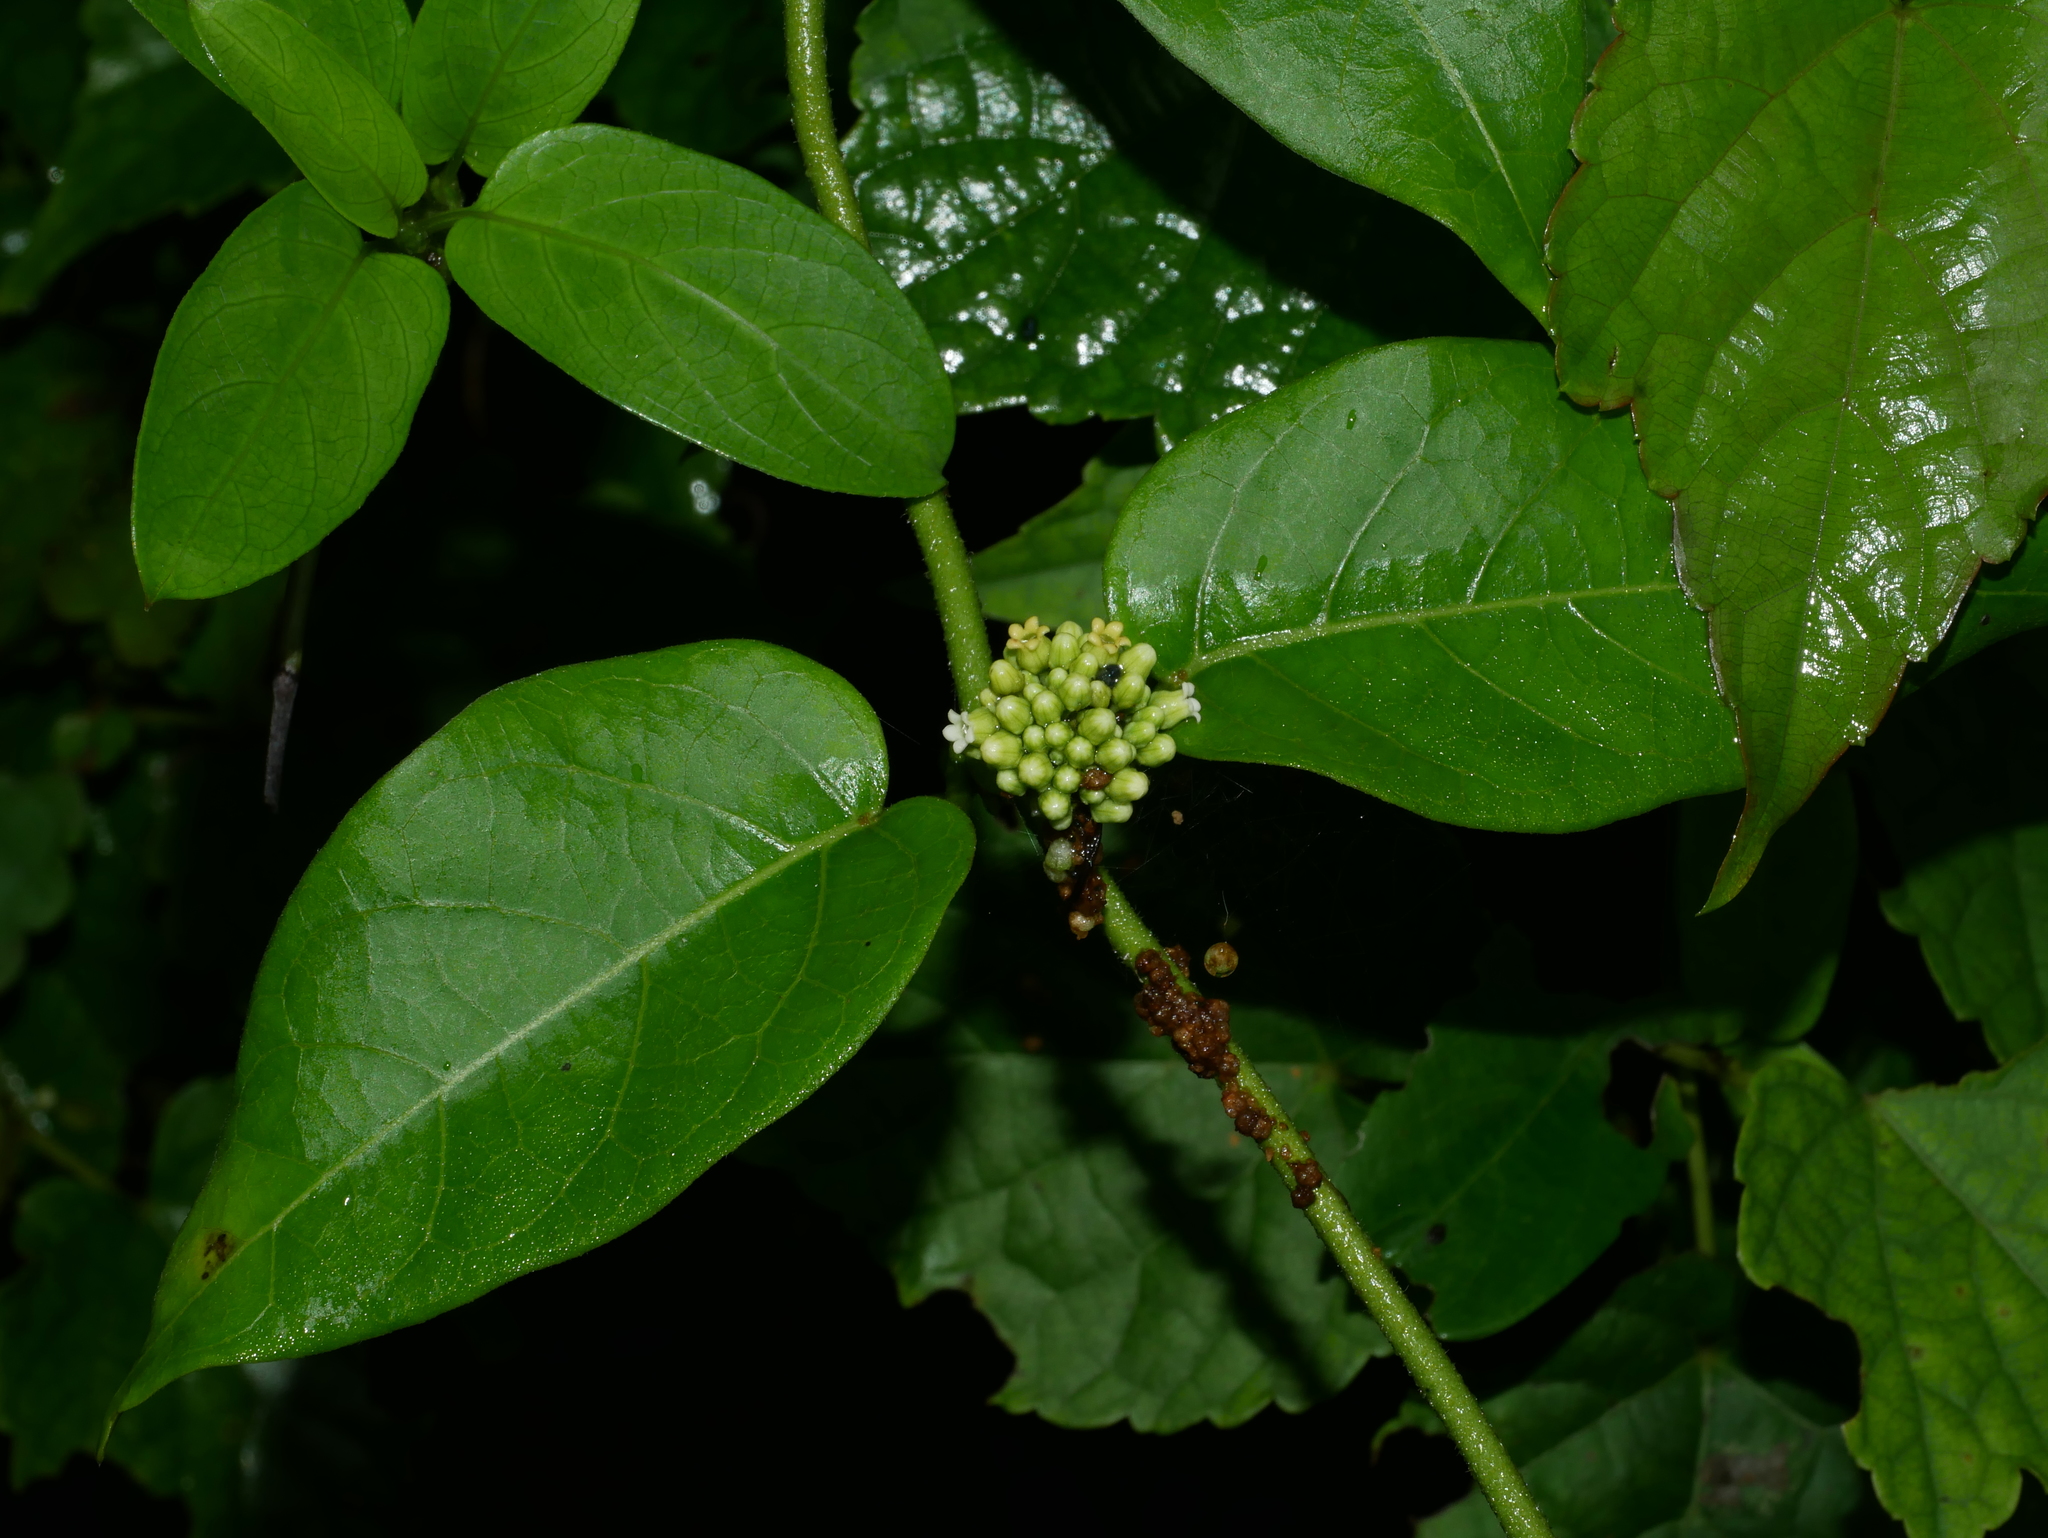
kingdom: Plantae
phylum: Tracheophyta
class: Magnoliopsida
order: Gentianales
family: Apocynaceae
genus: Marsdenia
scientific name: Marsdenia tinctoria
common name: Climbing-indigo
